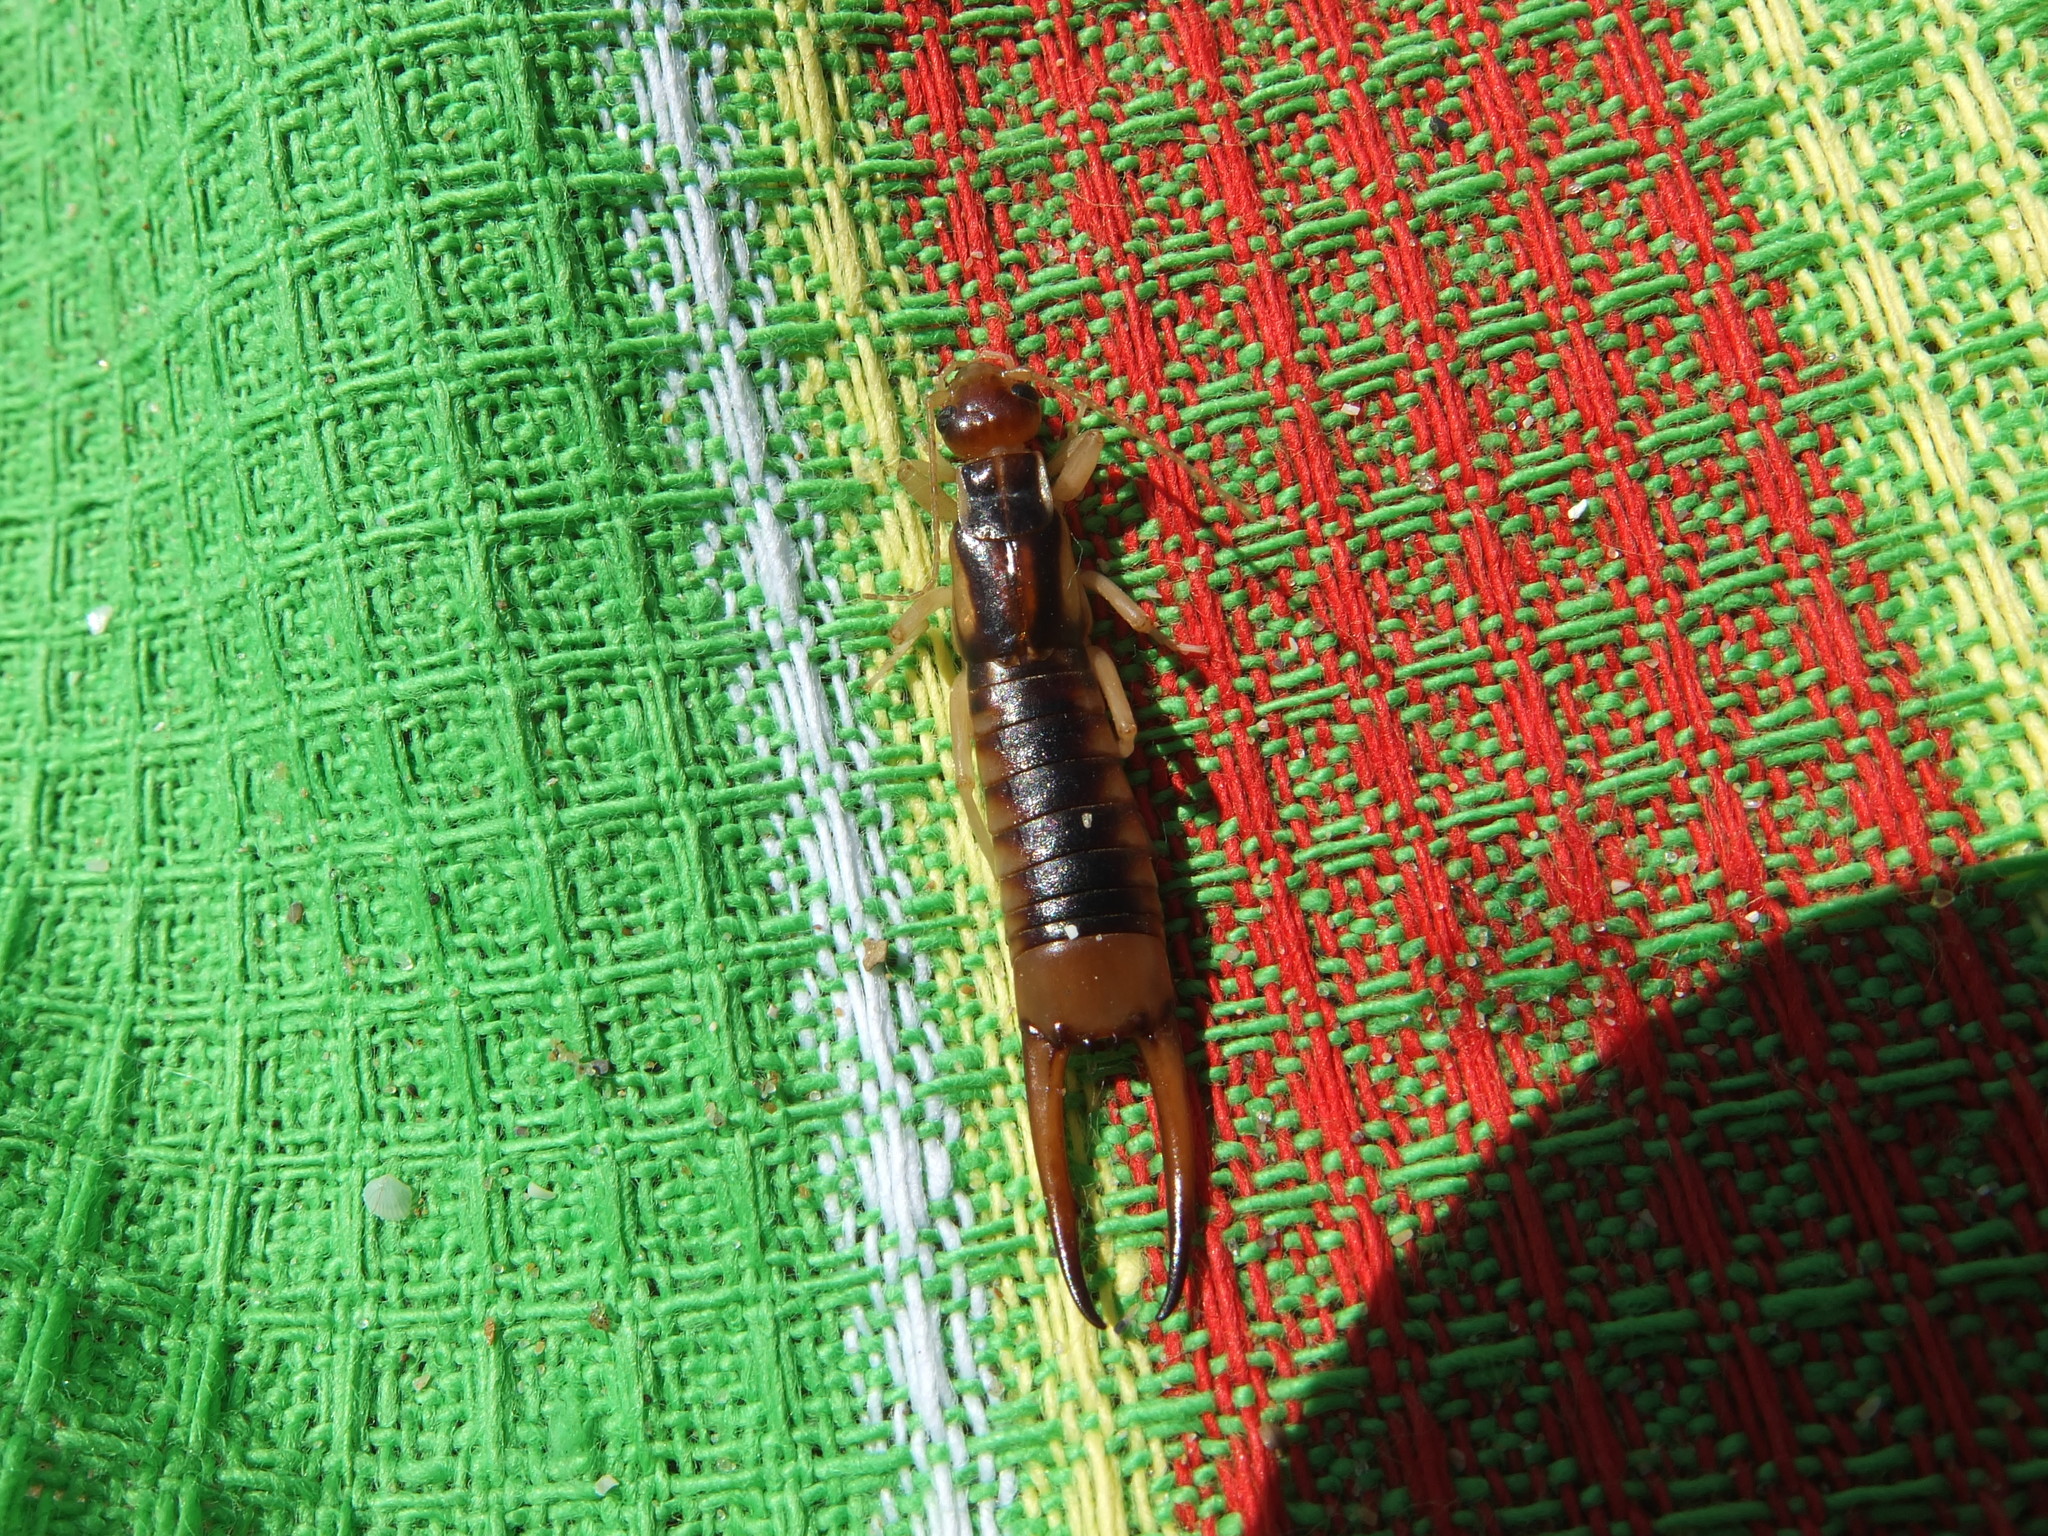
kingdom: Animalia
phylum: Arthropoda
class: Insecta
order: Dermaptera
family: Labiduridae
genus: Labidura
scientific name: Labidura riparia
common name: Striped earwig
